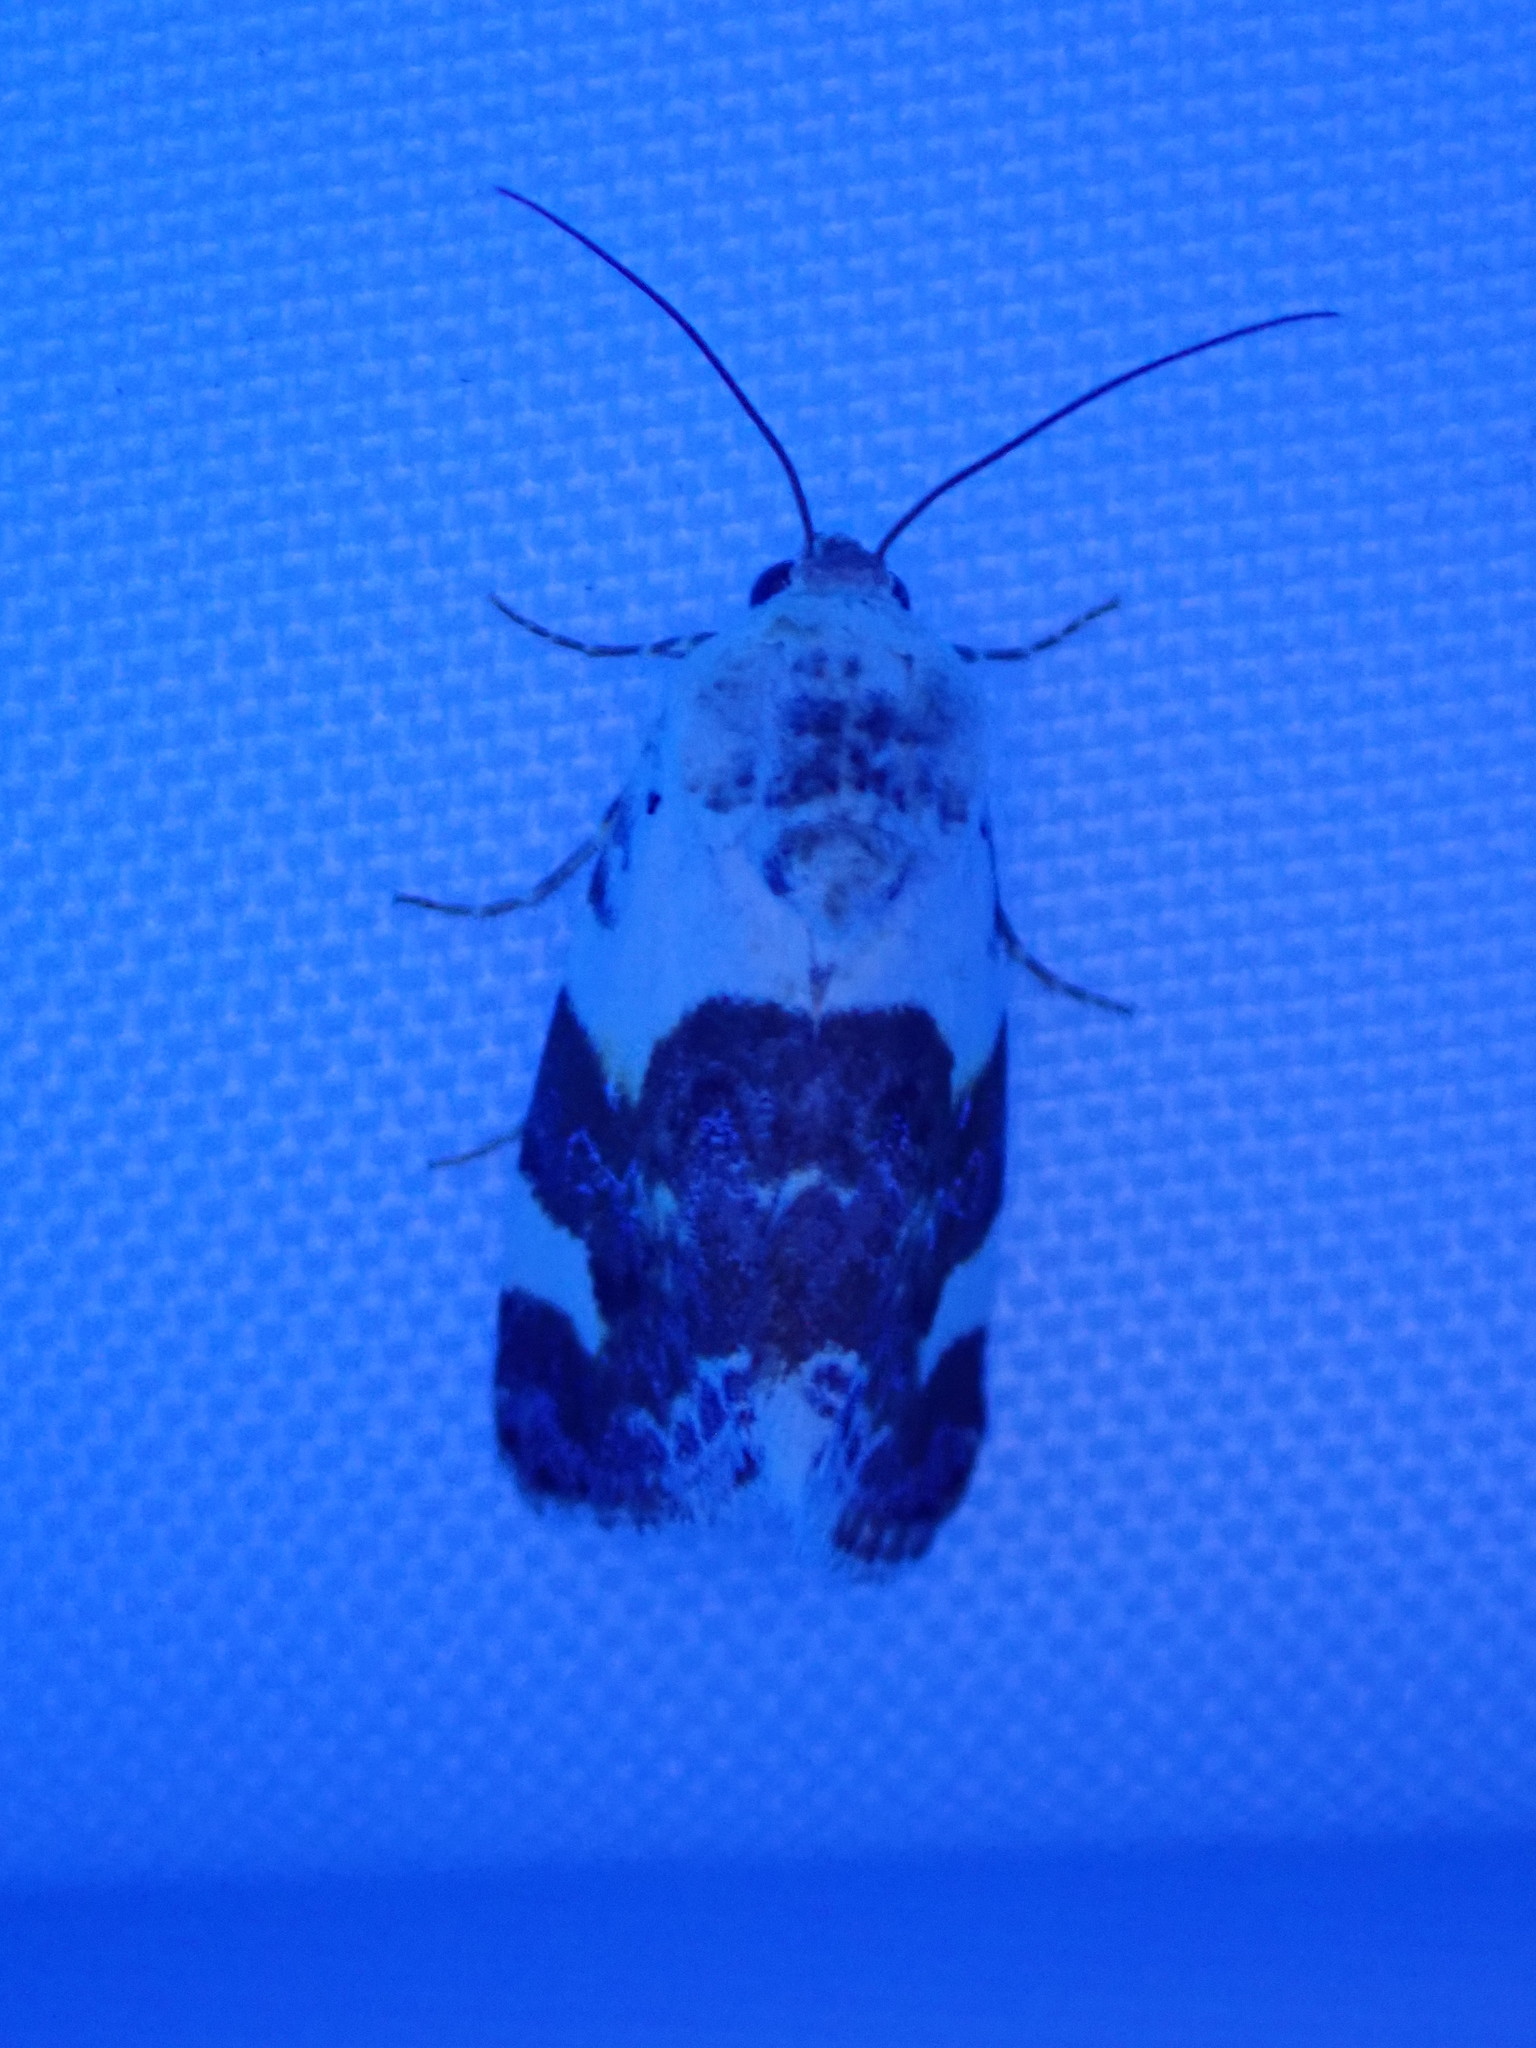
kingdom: Animalia
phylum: Arthropoda
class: Insecta
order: Lepidoptera
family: Noctuidae
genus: Acontia
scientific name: Acontia lucida
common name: Pale shoulder
